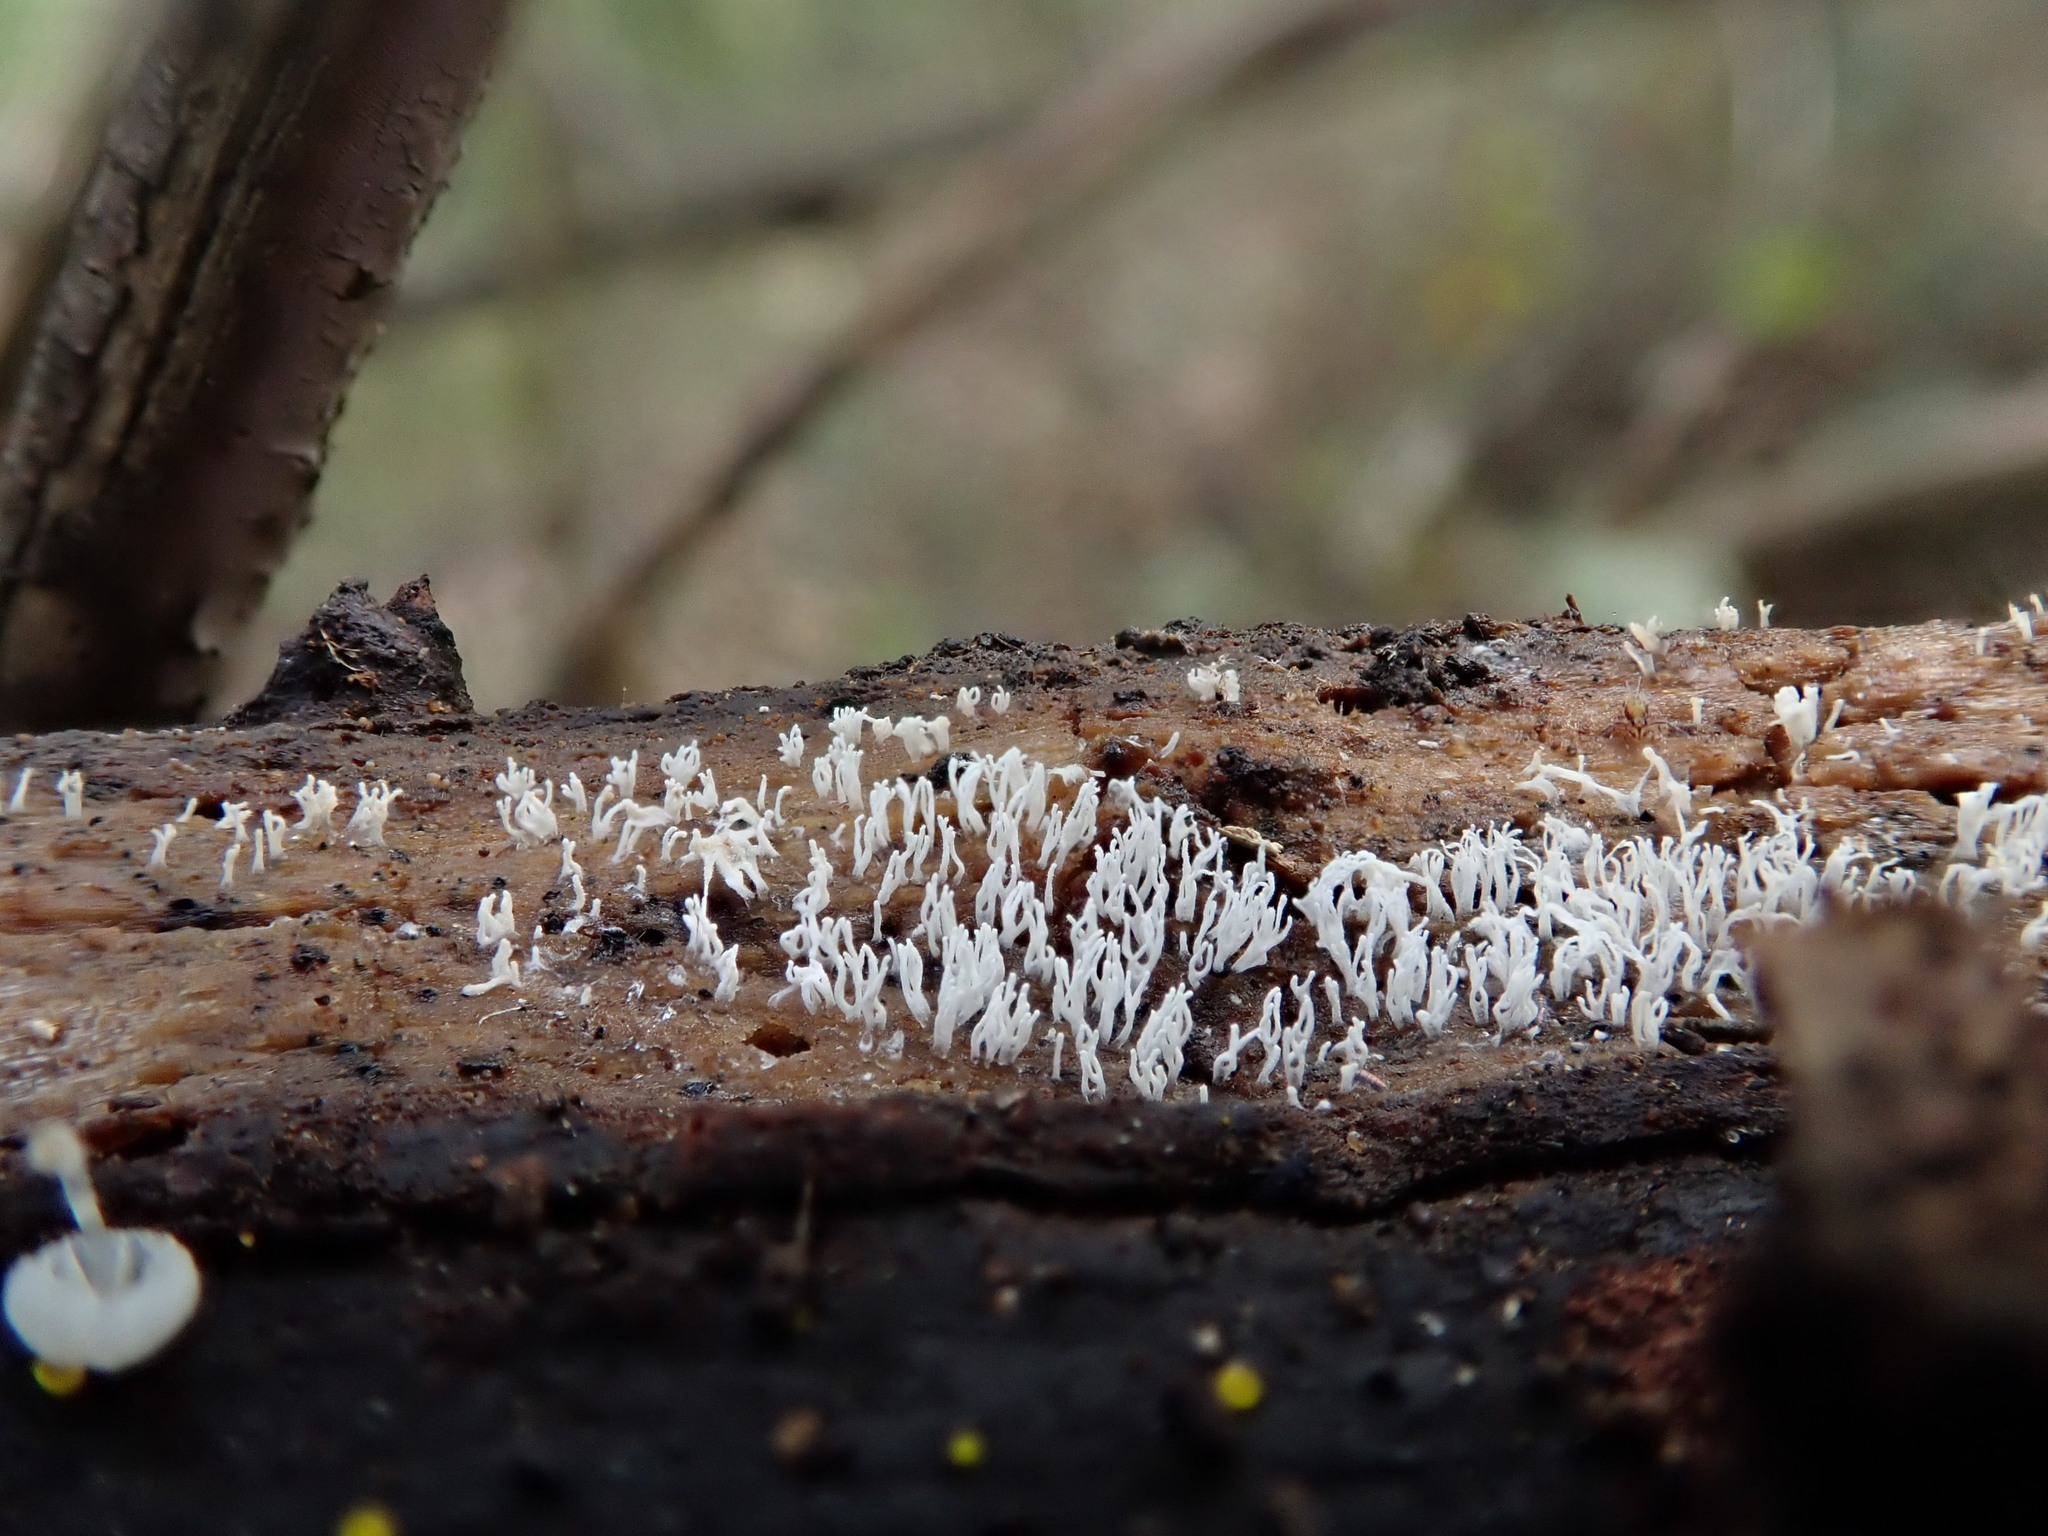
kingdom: Protozoa
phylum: Mycetozoa
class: Protosteliomycetes
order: Ceratiomyxales
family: Ceratiomyxaceae
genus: Ceratiomyxa
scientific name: Ceratiomyxa fruticulosa
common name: Honeycomb coral slime mold
